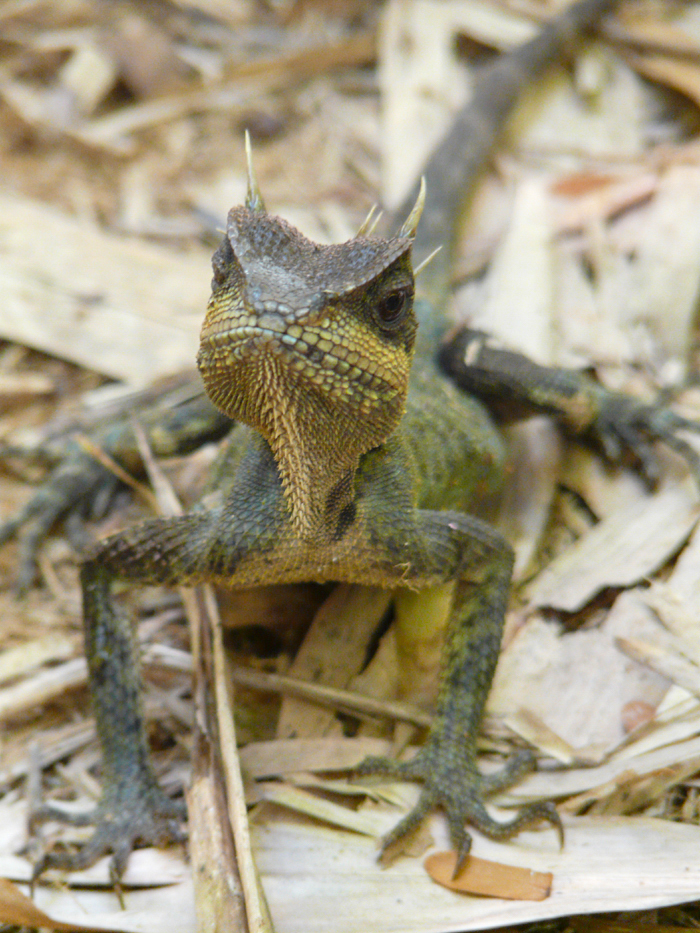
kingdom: Animalia
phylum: Chordata
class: Squamata
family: Agamidae
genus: Acanthosaura
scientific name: Acanthosaura cardamomensis
